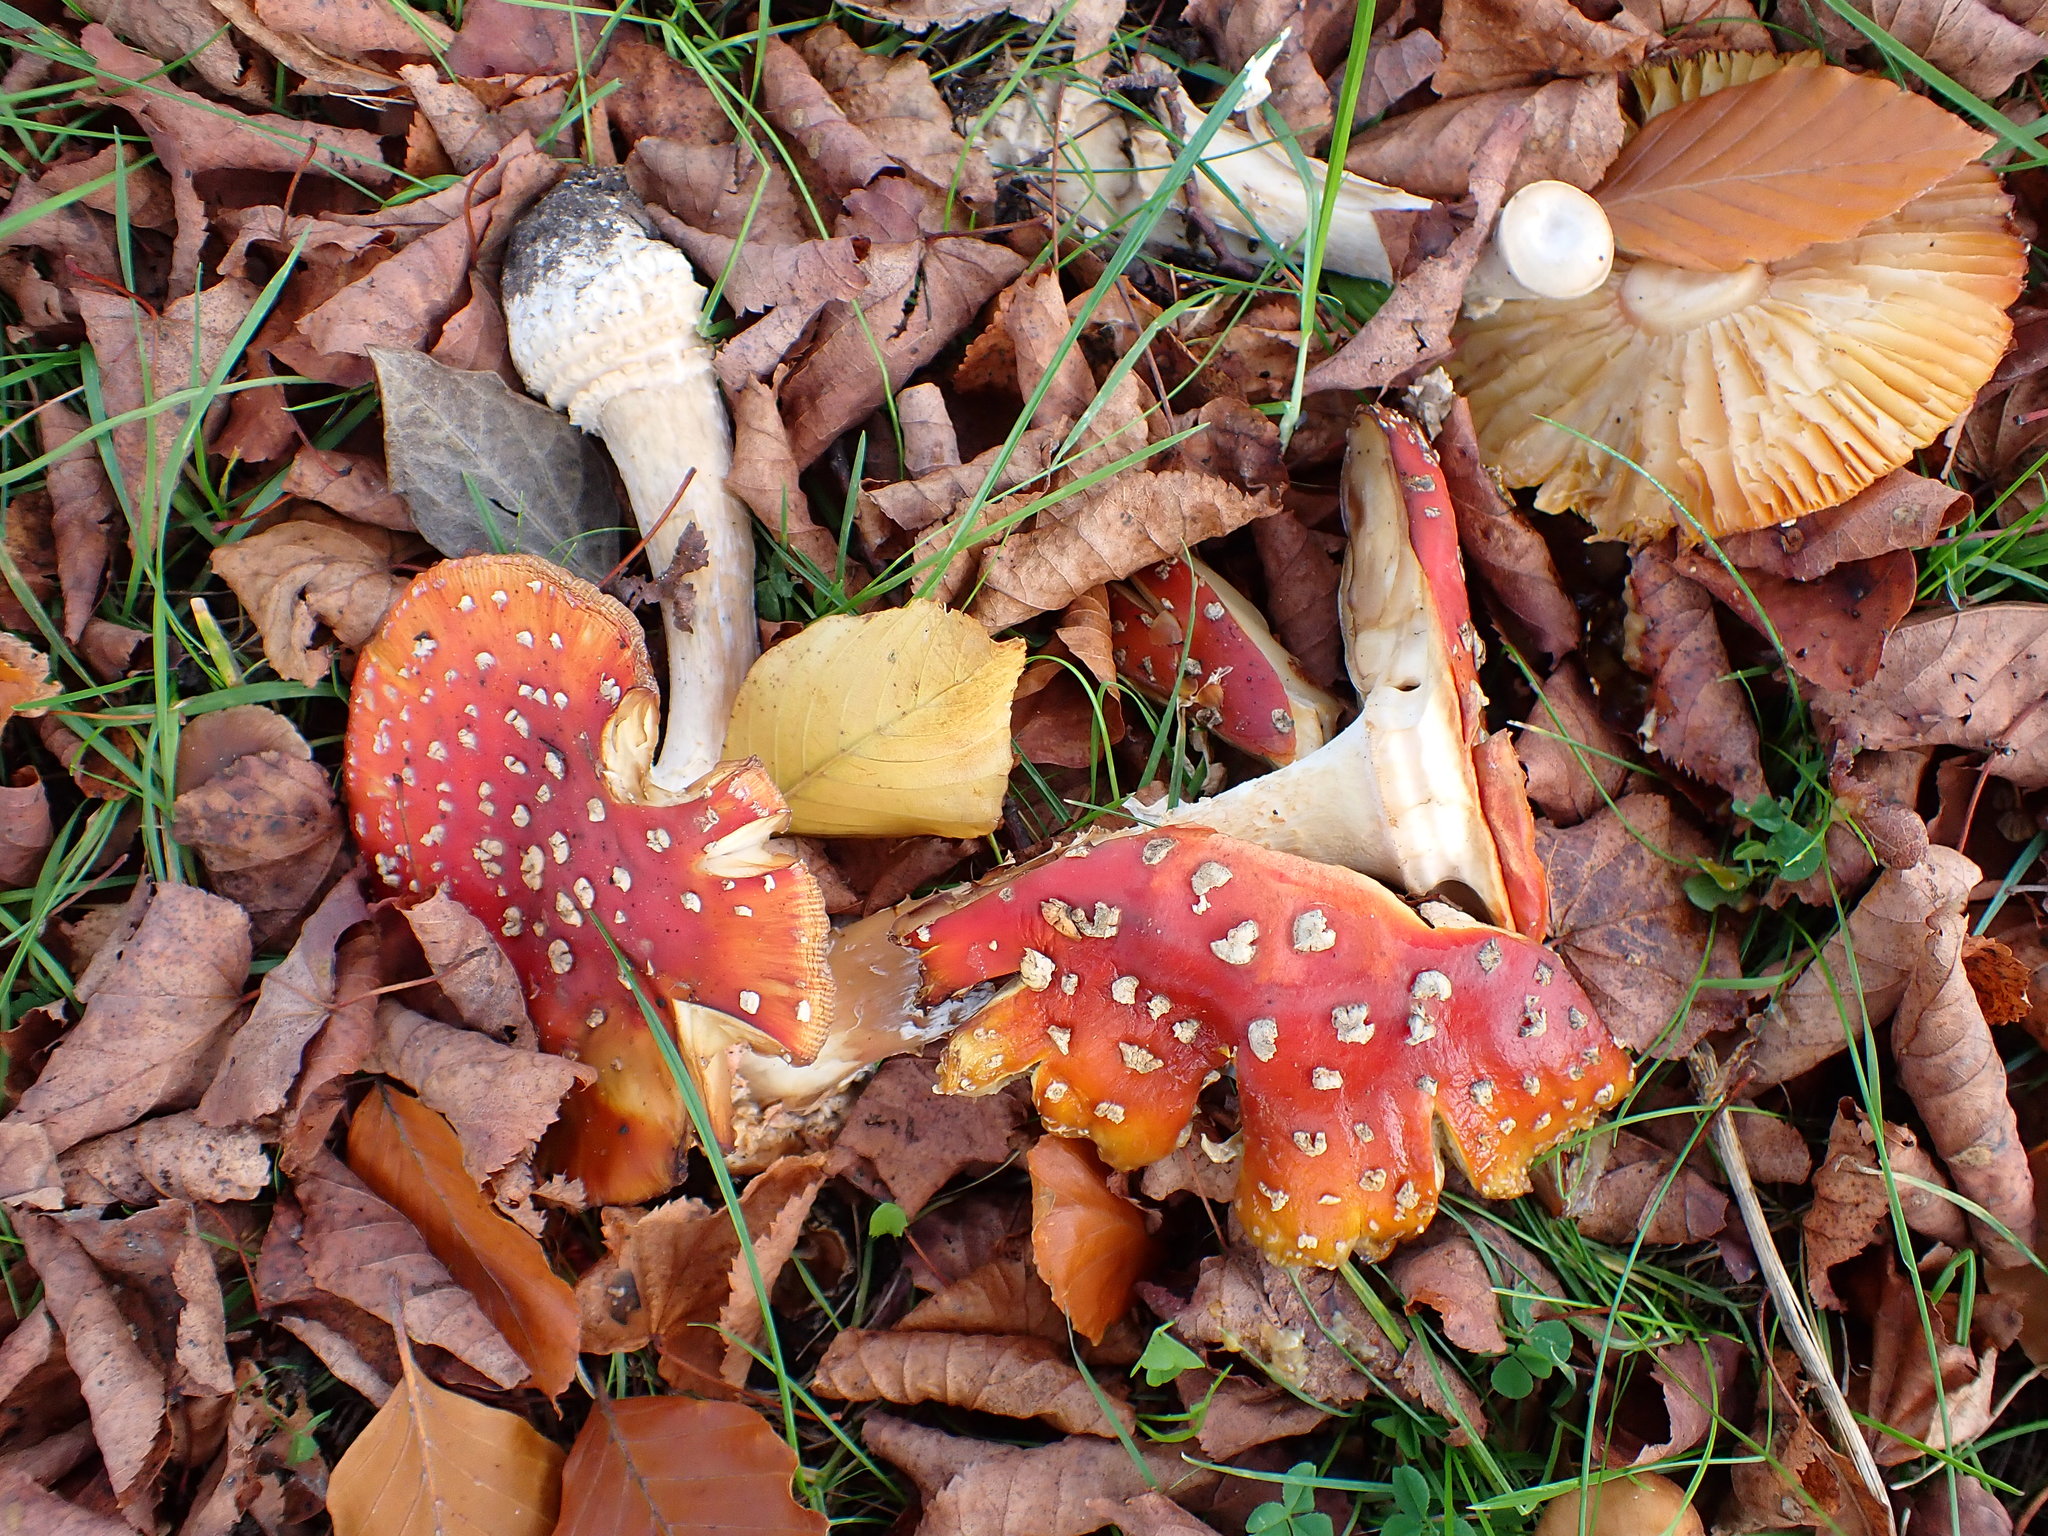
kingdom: Fungi
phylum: Basidiomycota
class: Agaricomycetes
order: Agaricales
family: Amanitaceae
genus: Amanita
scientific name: Amanita muscaria
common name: Fly agaric
